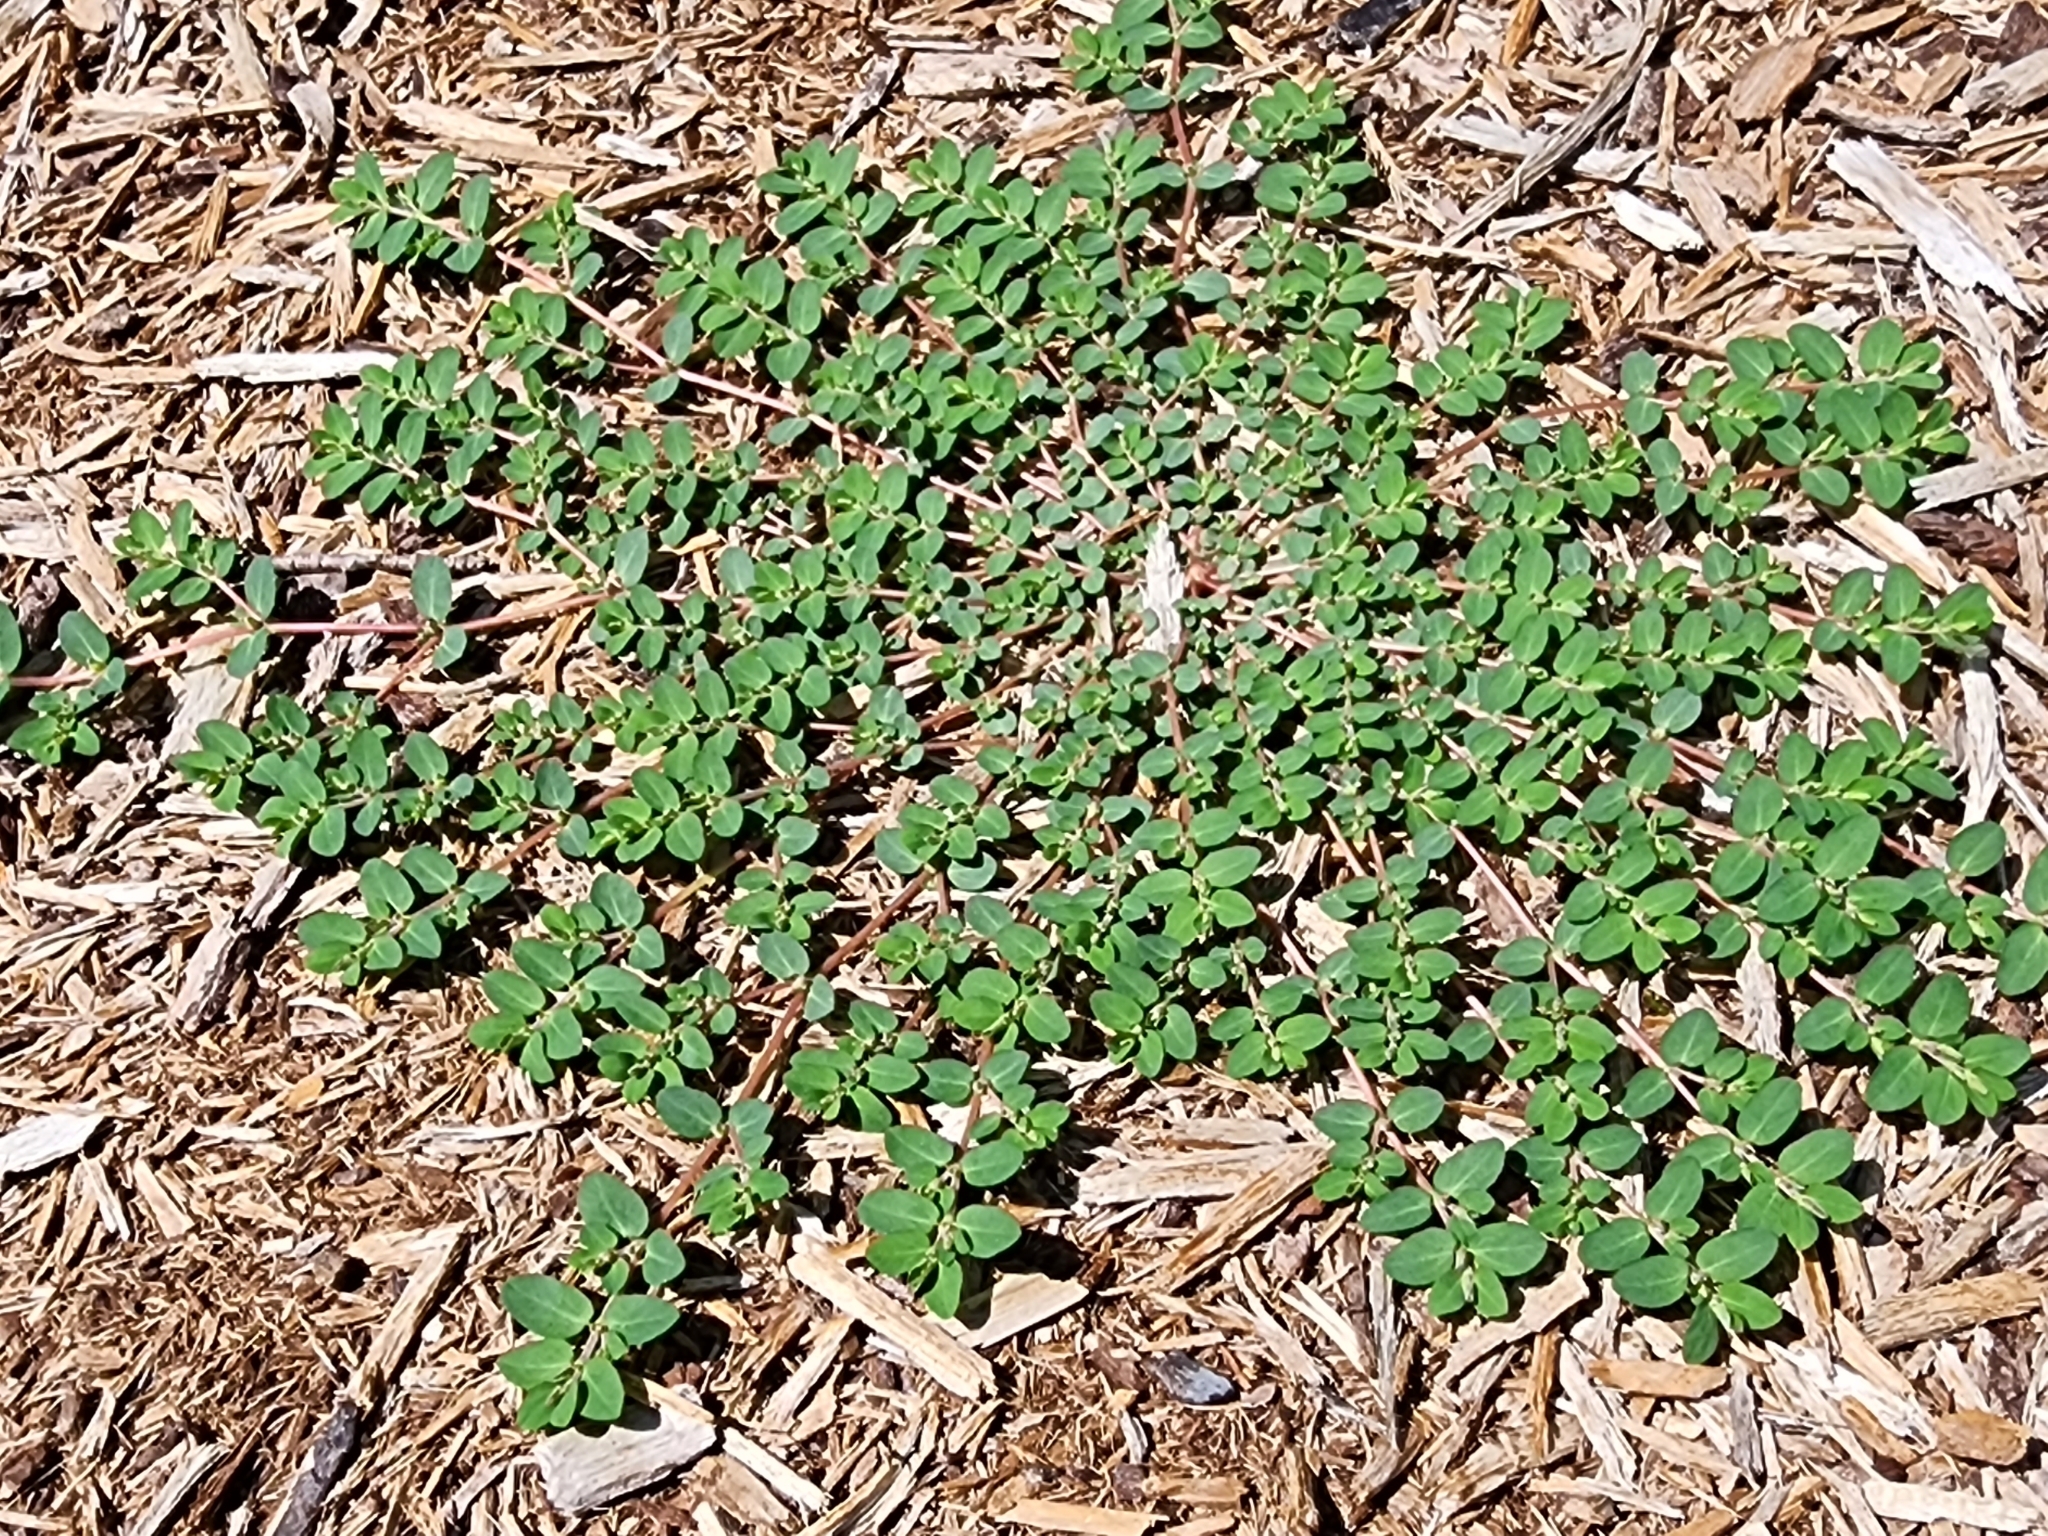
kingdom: Plantae
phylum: Tracheophyta
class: Magnoliopsida
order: Malpighiales
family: Euphorbiaceae
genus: Euphorbia
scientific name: Euphorbia prostrata
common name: Prostrate sandmat
